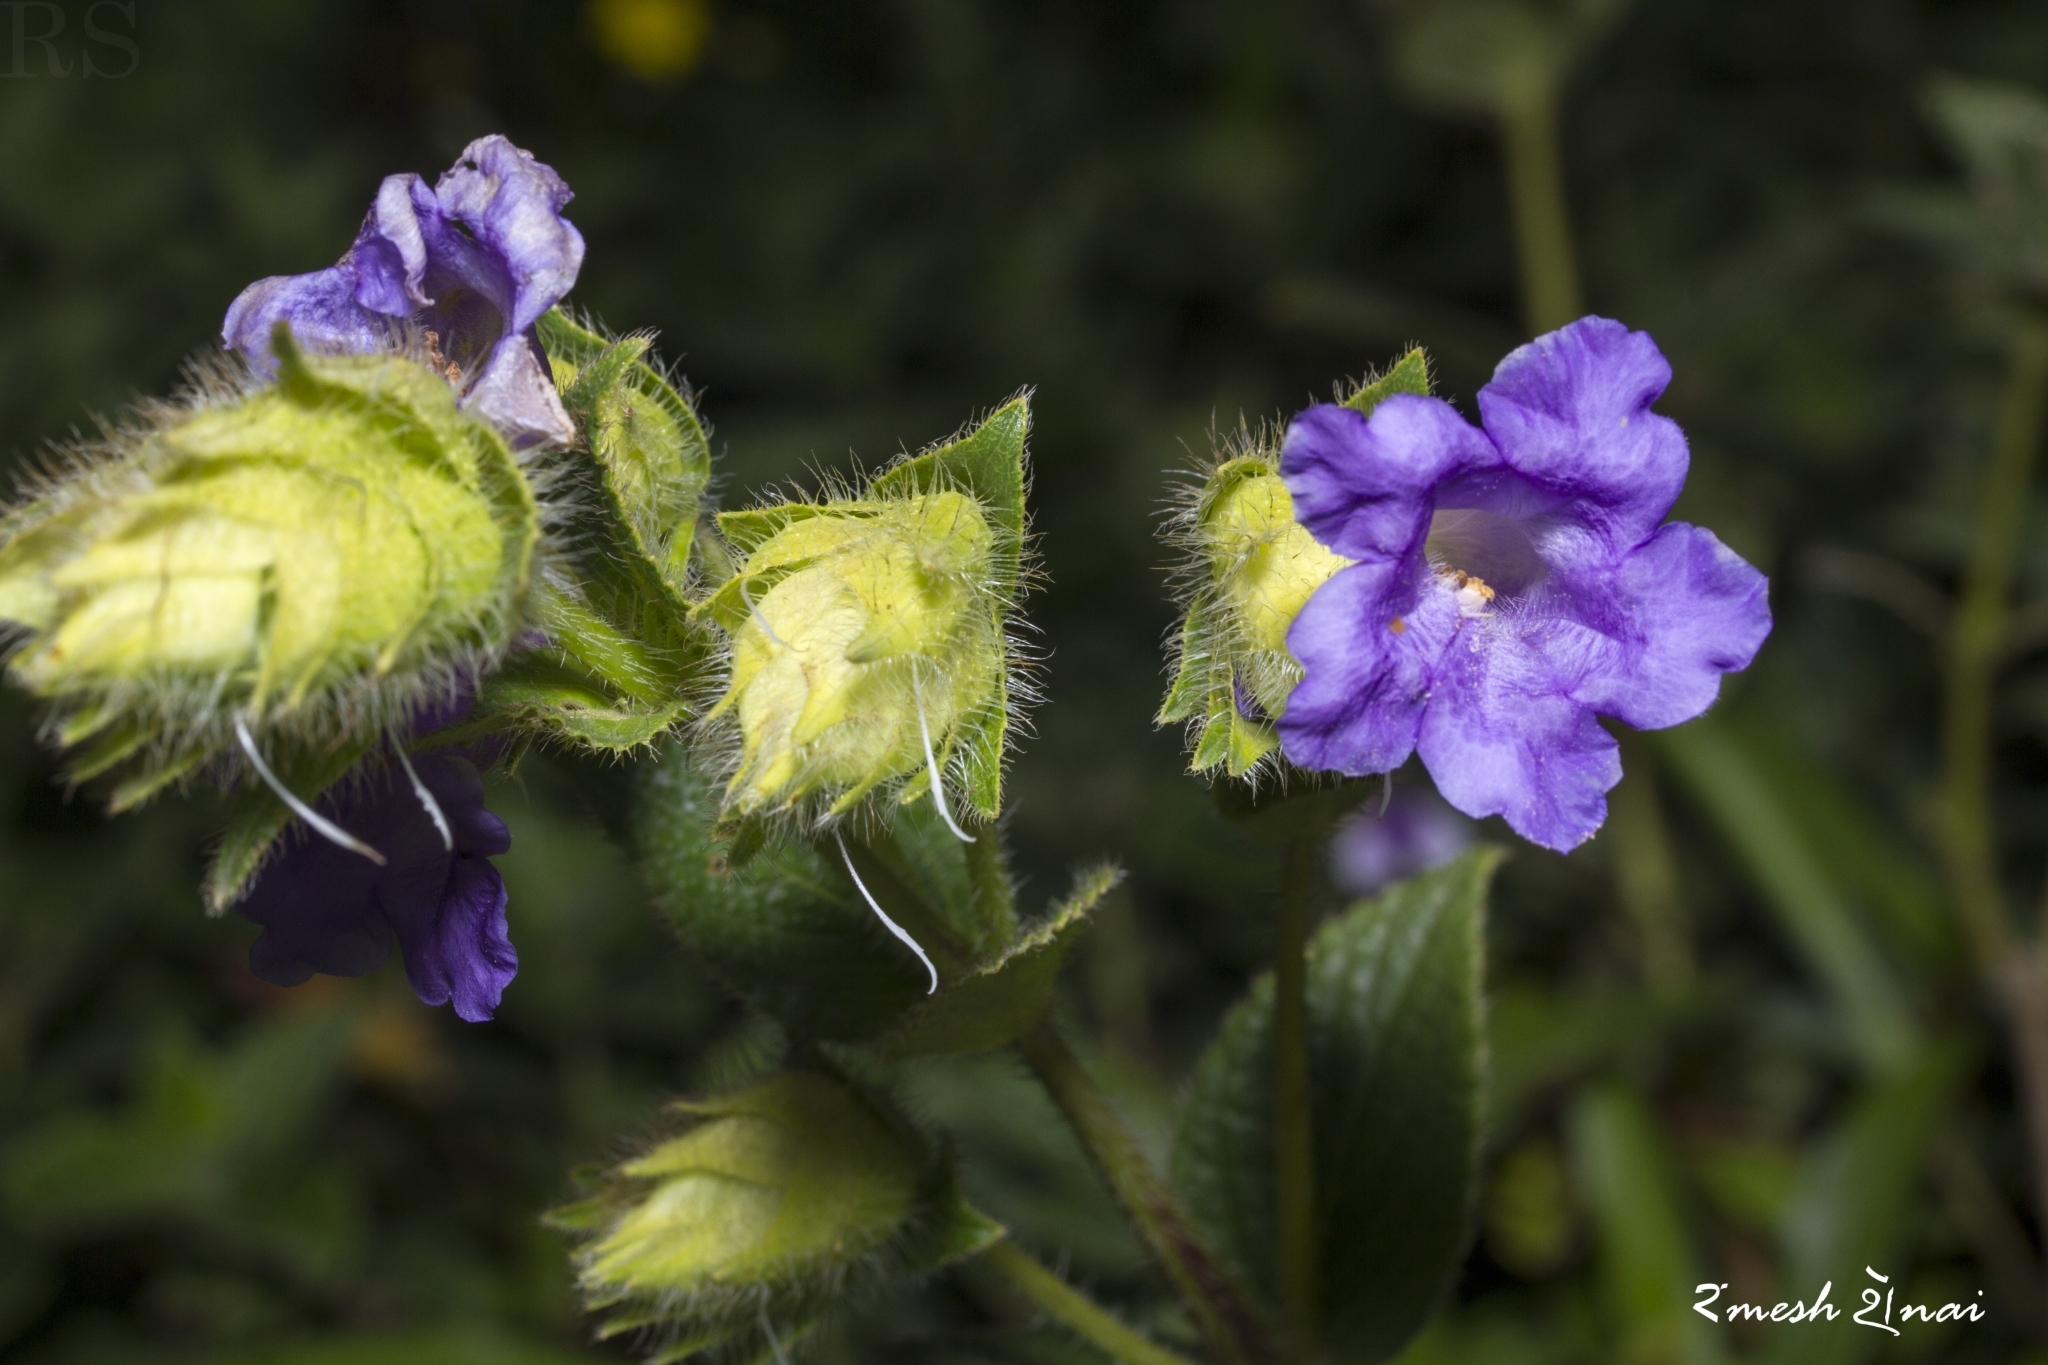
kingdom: Plantae
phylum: Tracheophyta
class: Magnoliopsida
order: Lamiales
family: Acanthaceae
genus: Strobilanthes
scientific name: Strobilanthes sessilis
